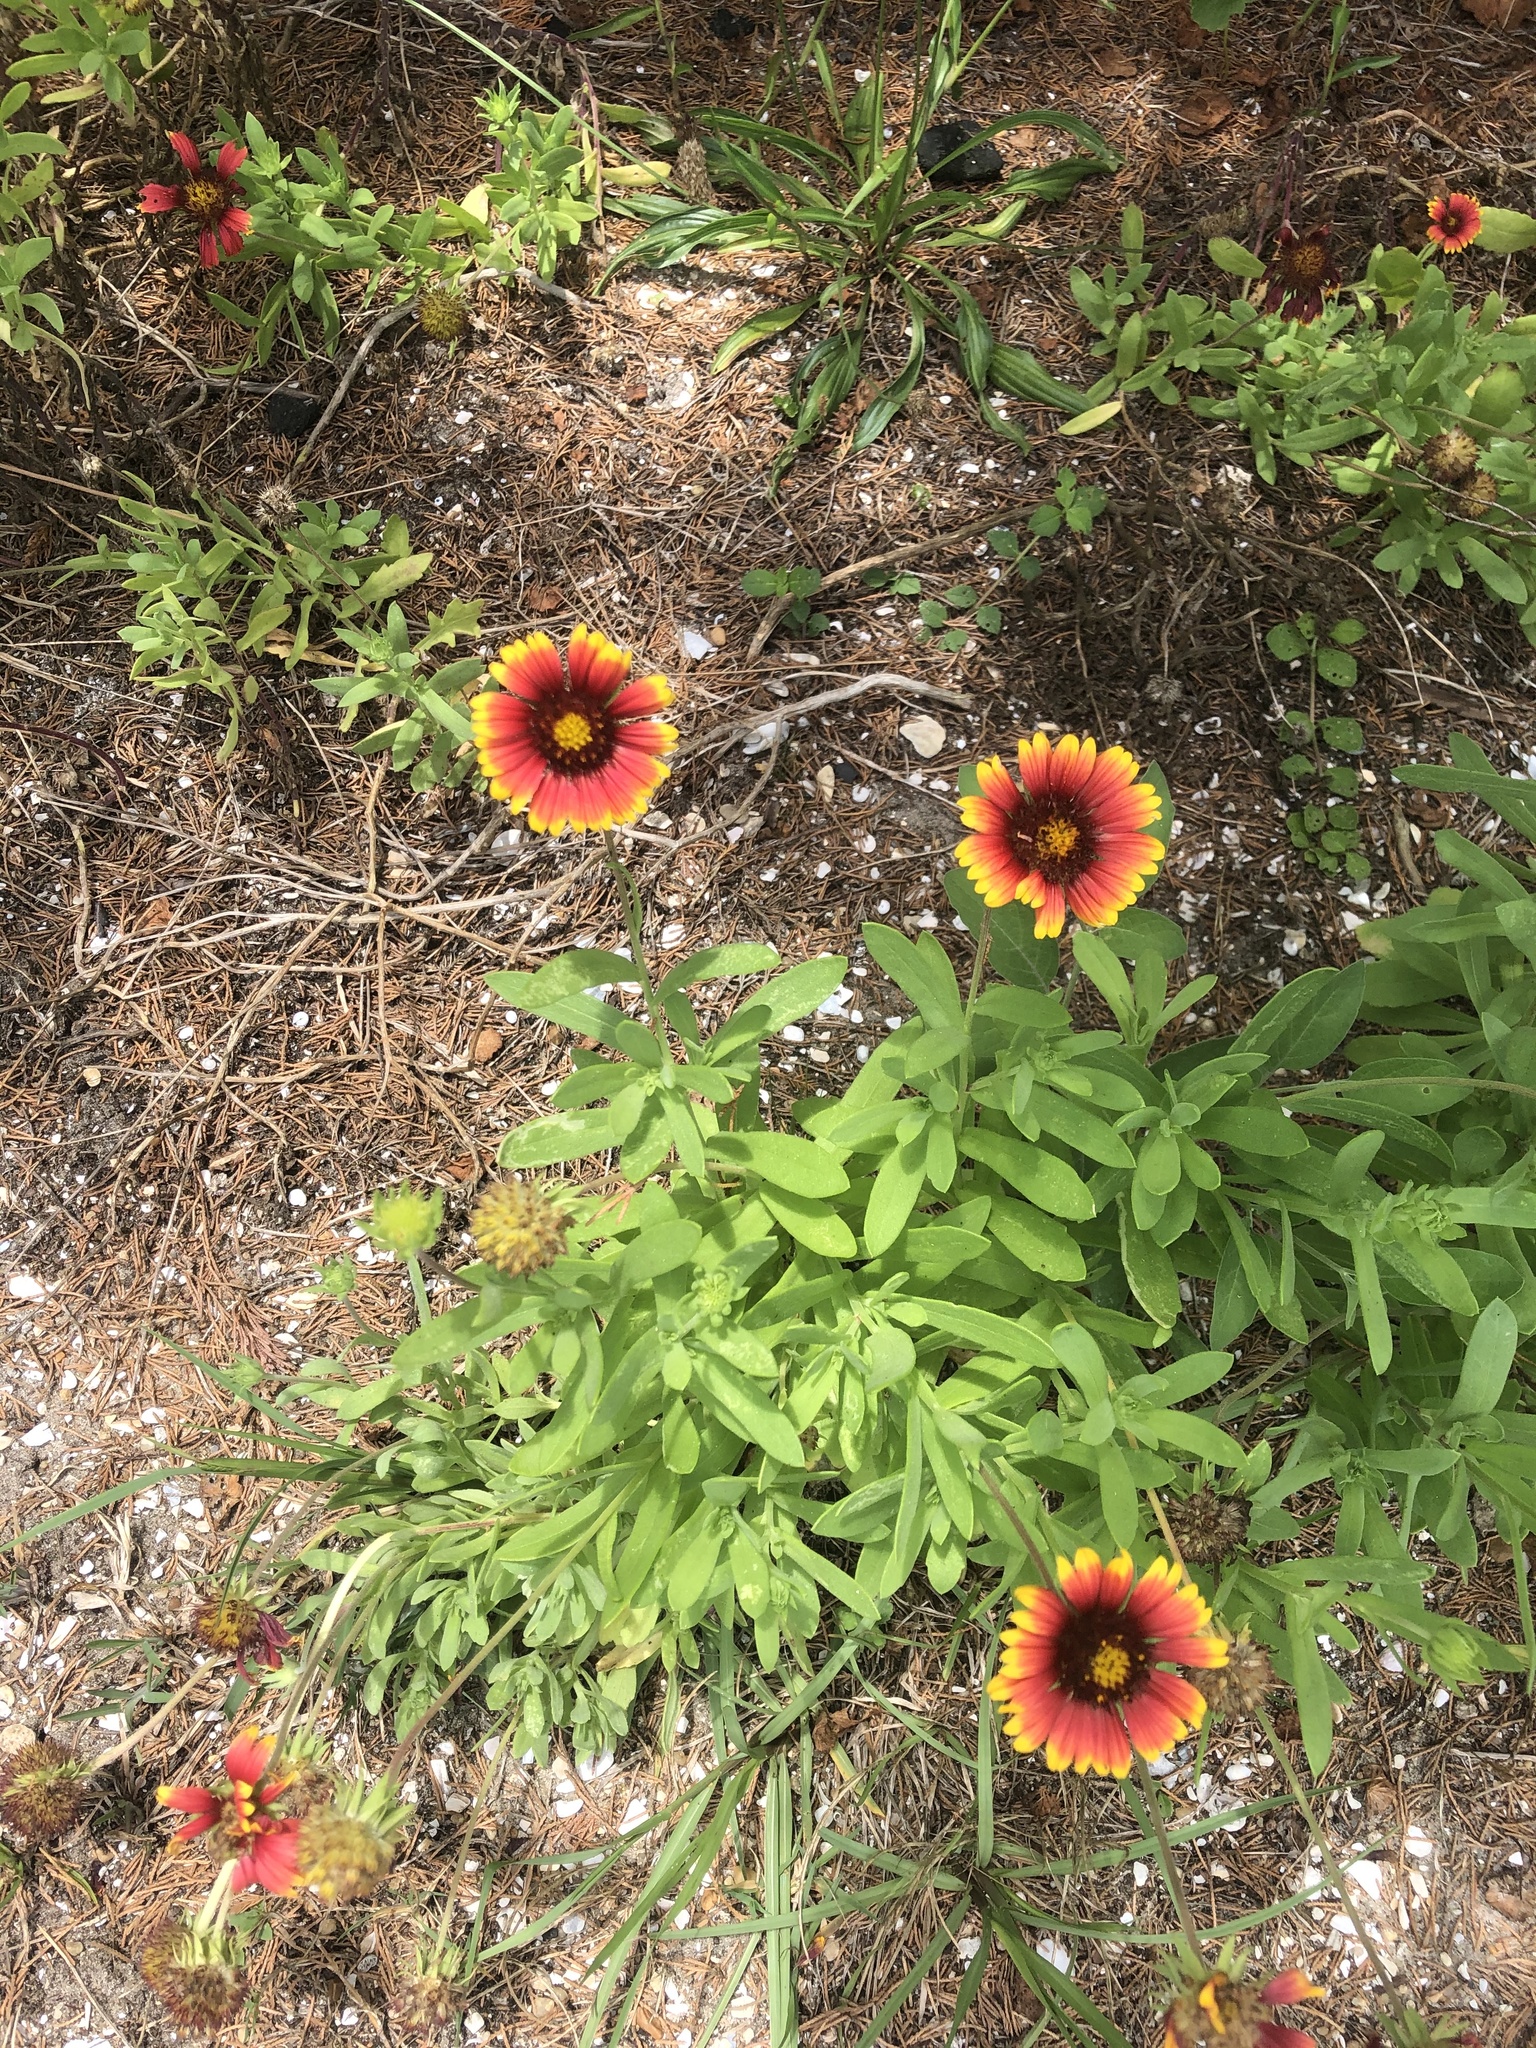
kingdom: Plantae
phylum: Tracheophyta
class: Magnoliopsida
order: Asterales
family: Asteraceae
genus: Gaillardia
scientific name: Gaillardia pulchella
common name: Firewheel
